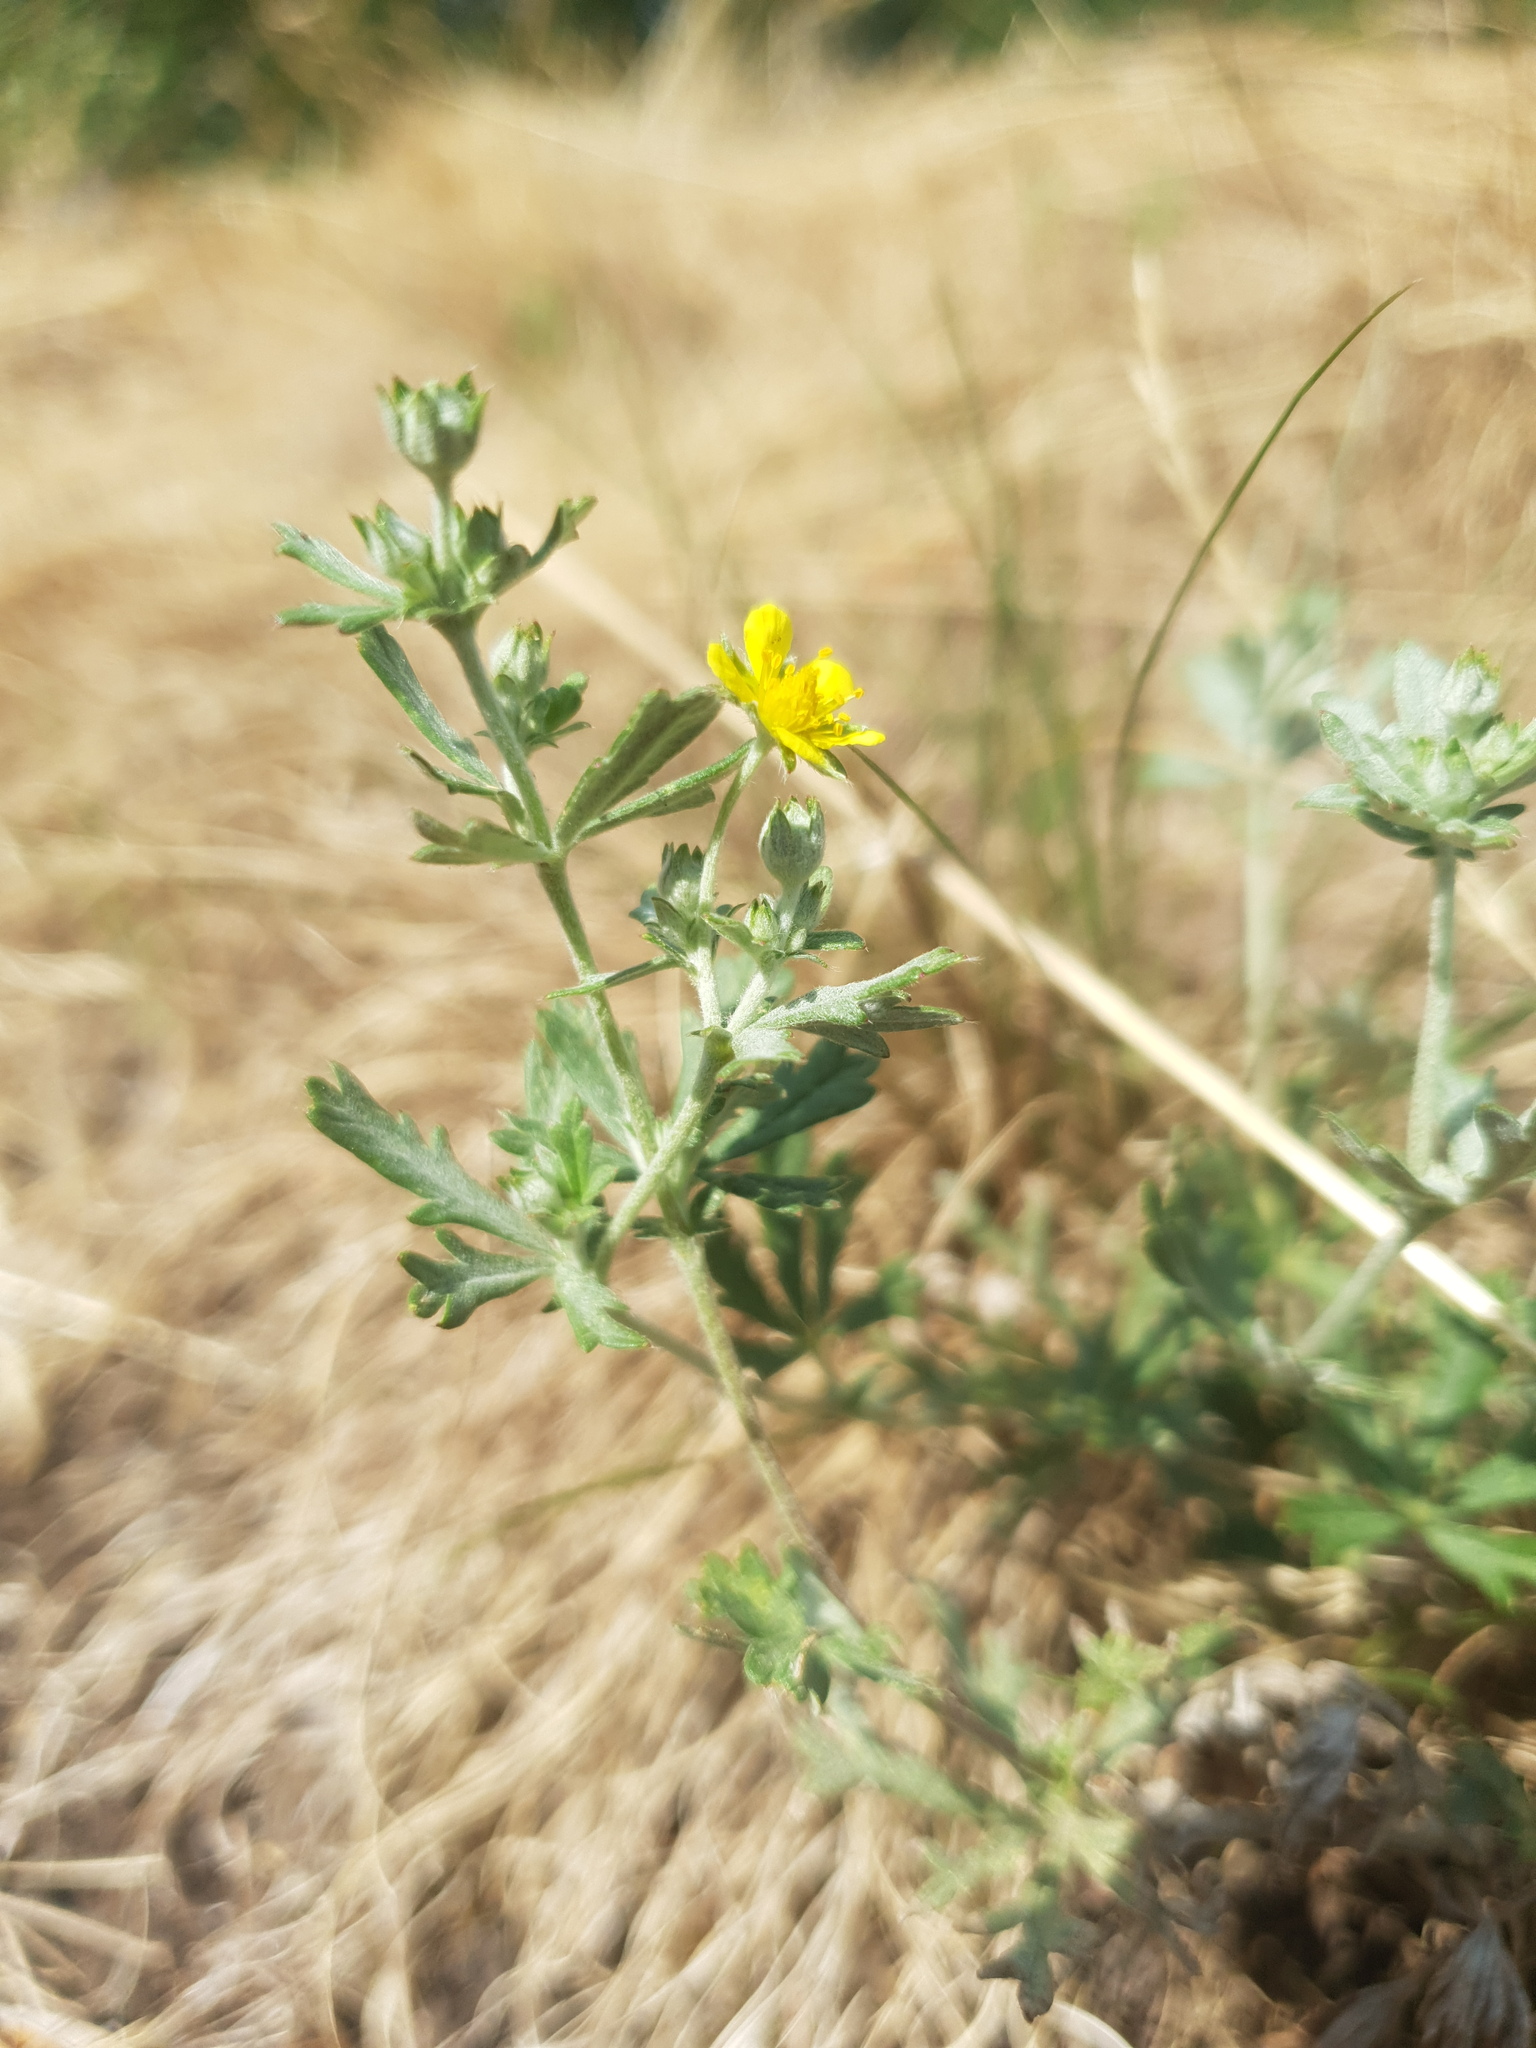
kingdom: Plantae
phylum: Tracheophyta
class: Magnoliopsida
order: Rosales
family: Rosaceae
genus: Potentilla
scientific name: Potentilla argentea
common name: Hoary cinquefoil
